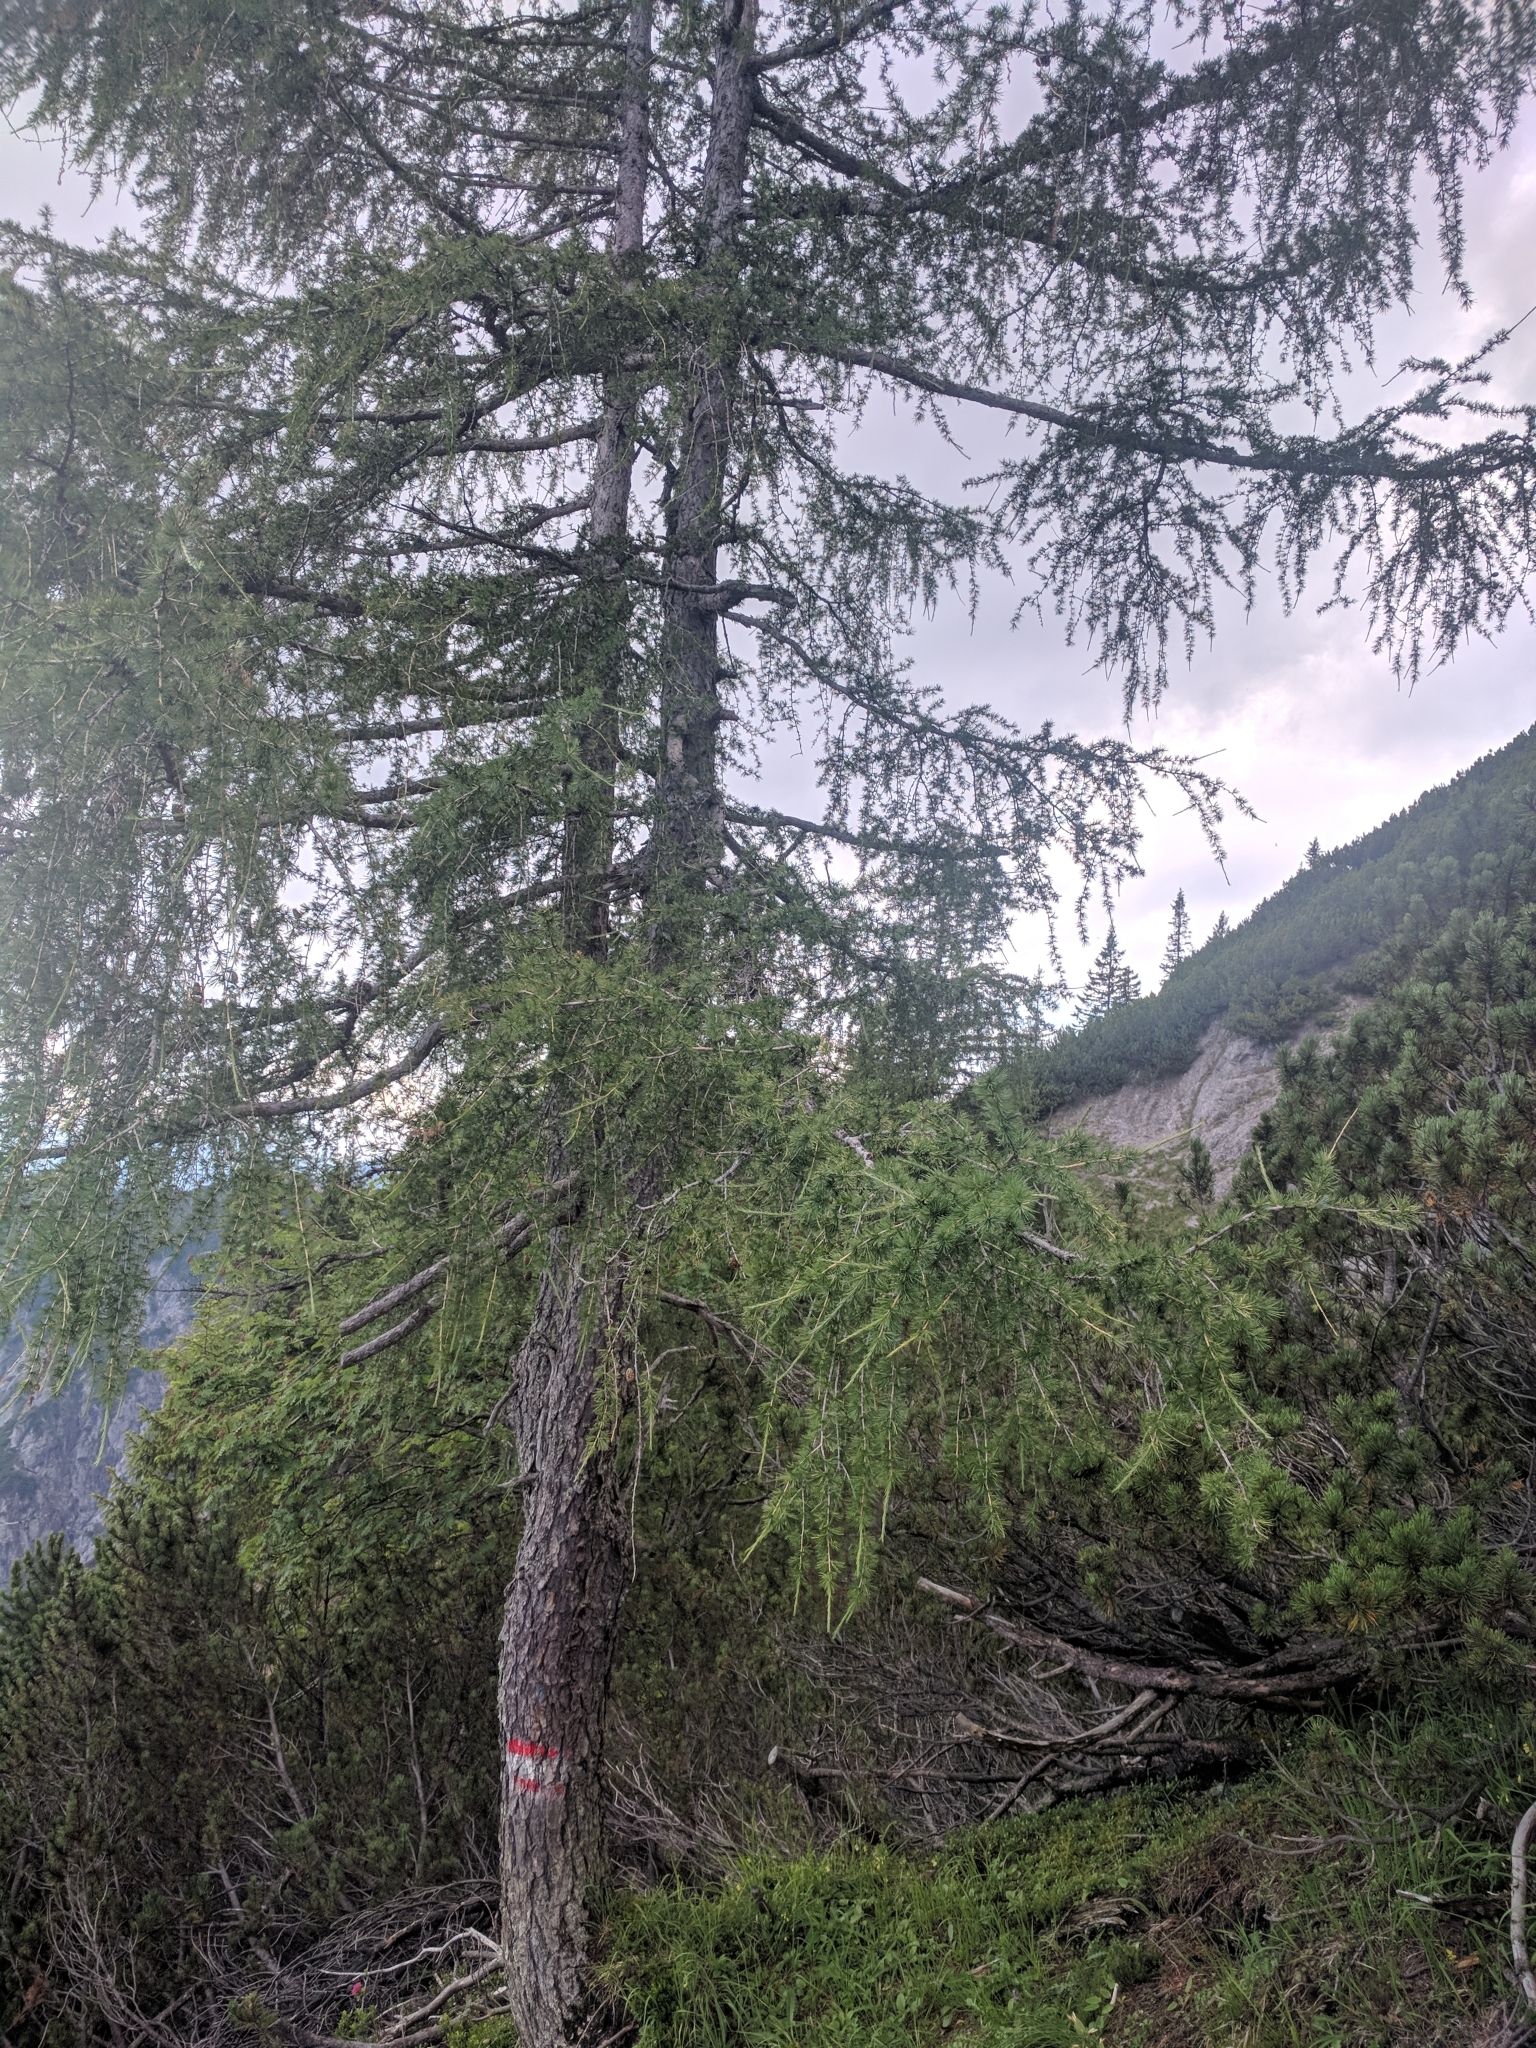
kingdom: Plantae
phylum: Tracheophyta
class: Pinopsida
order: Pinales
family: Pinaceae
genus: Larix
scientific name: Larix decidua
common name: European larch
